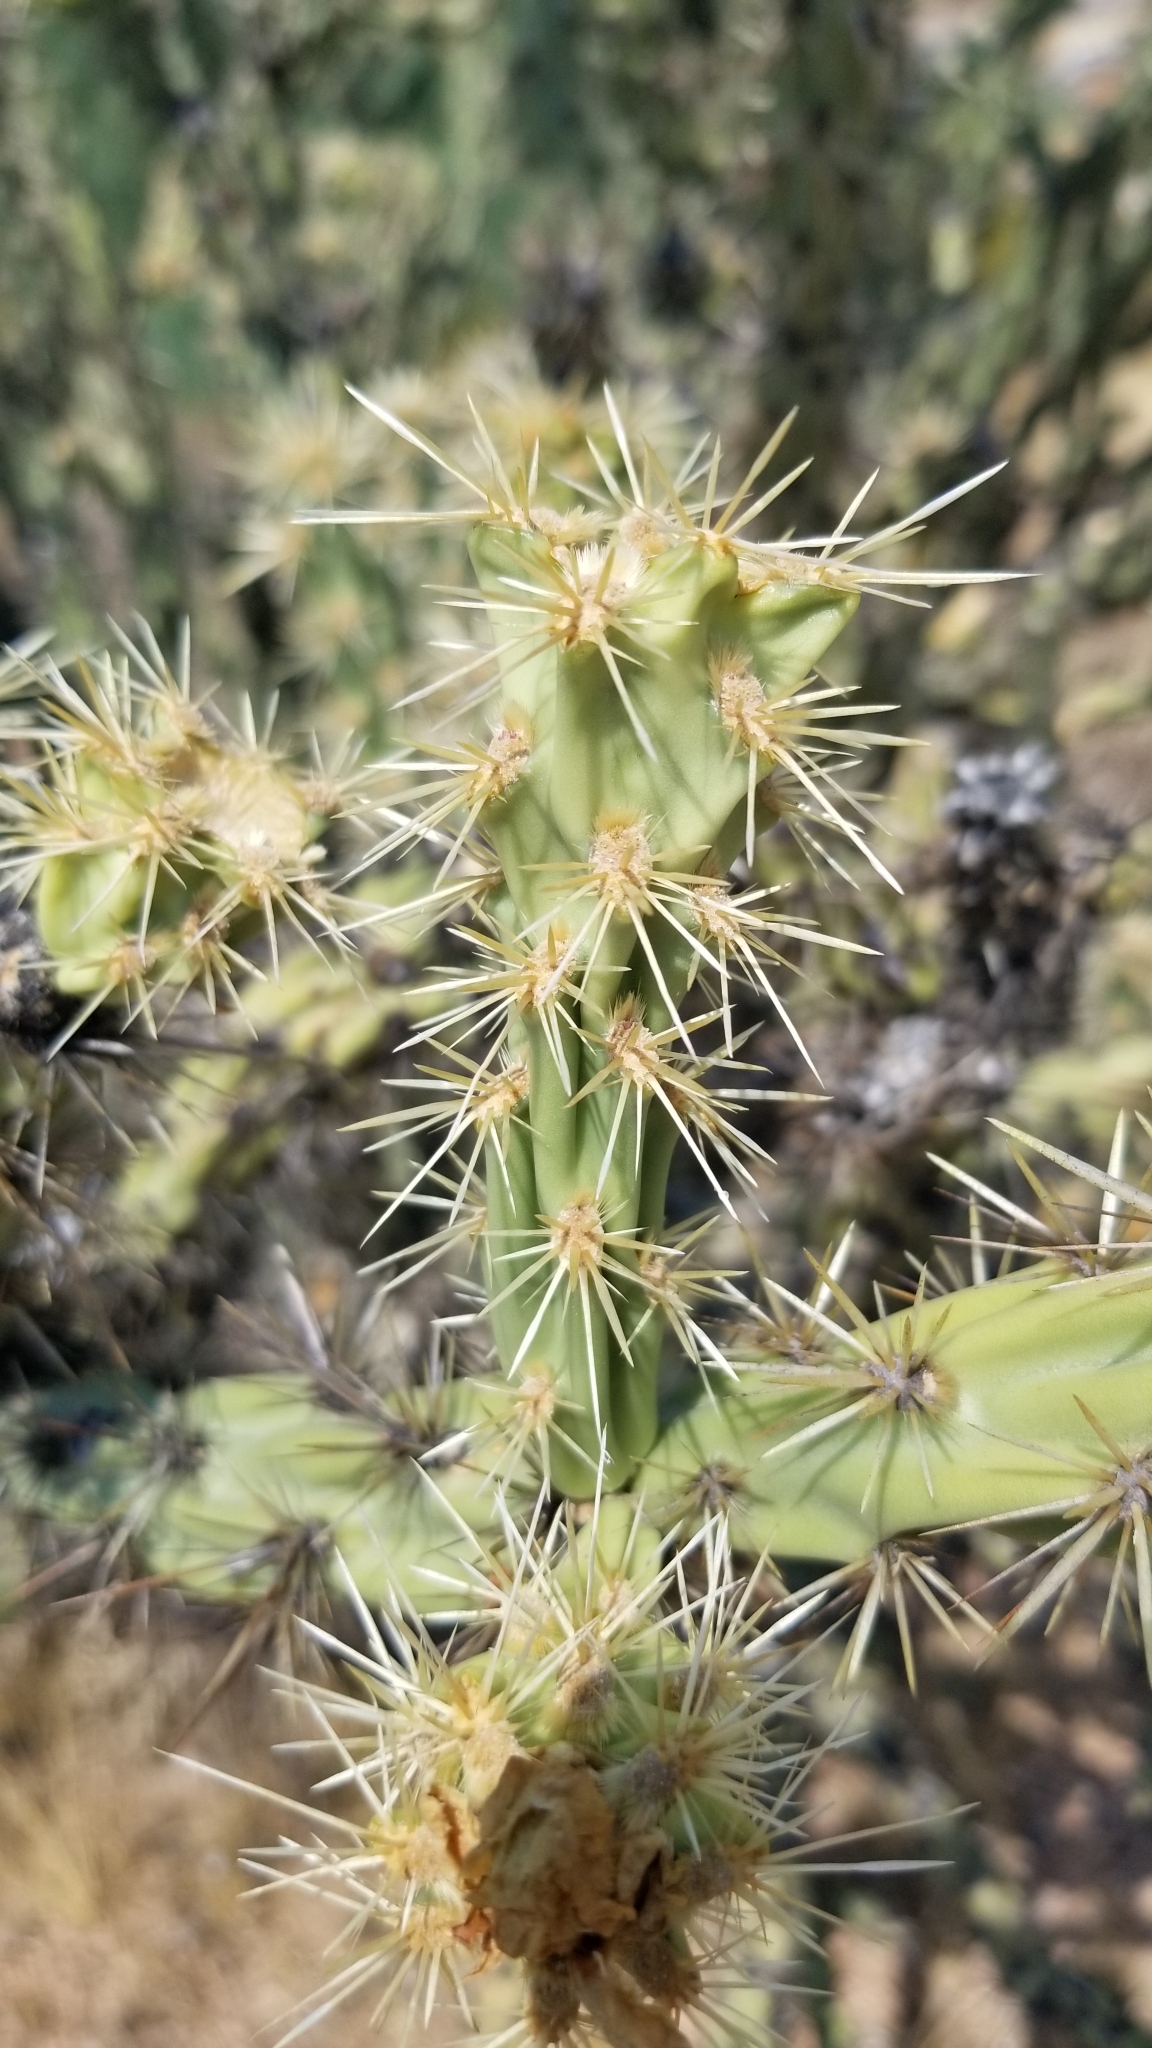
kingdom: Plantae
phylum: Tracheophyta
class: Magnoliopsida
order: Caryophyllales
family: Cactaceae
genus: Cylindropuntia
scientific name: Cylindropuntia acanthocarpa
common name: Buckhorn cholla
